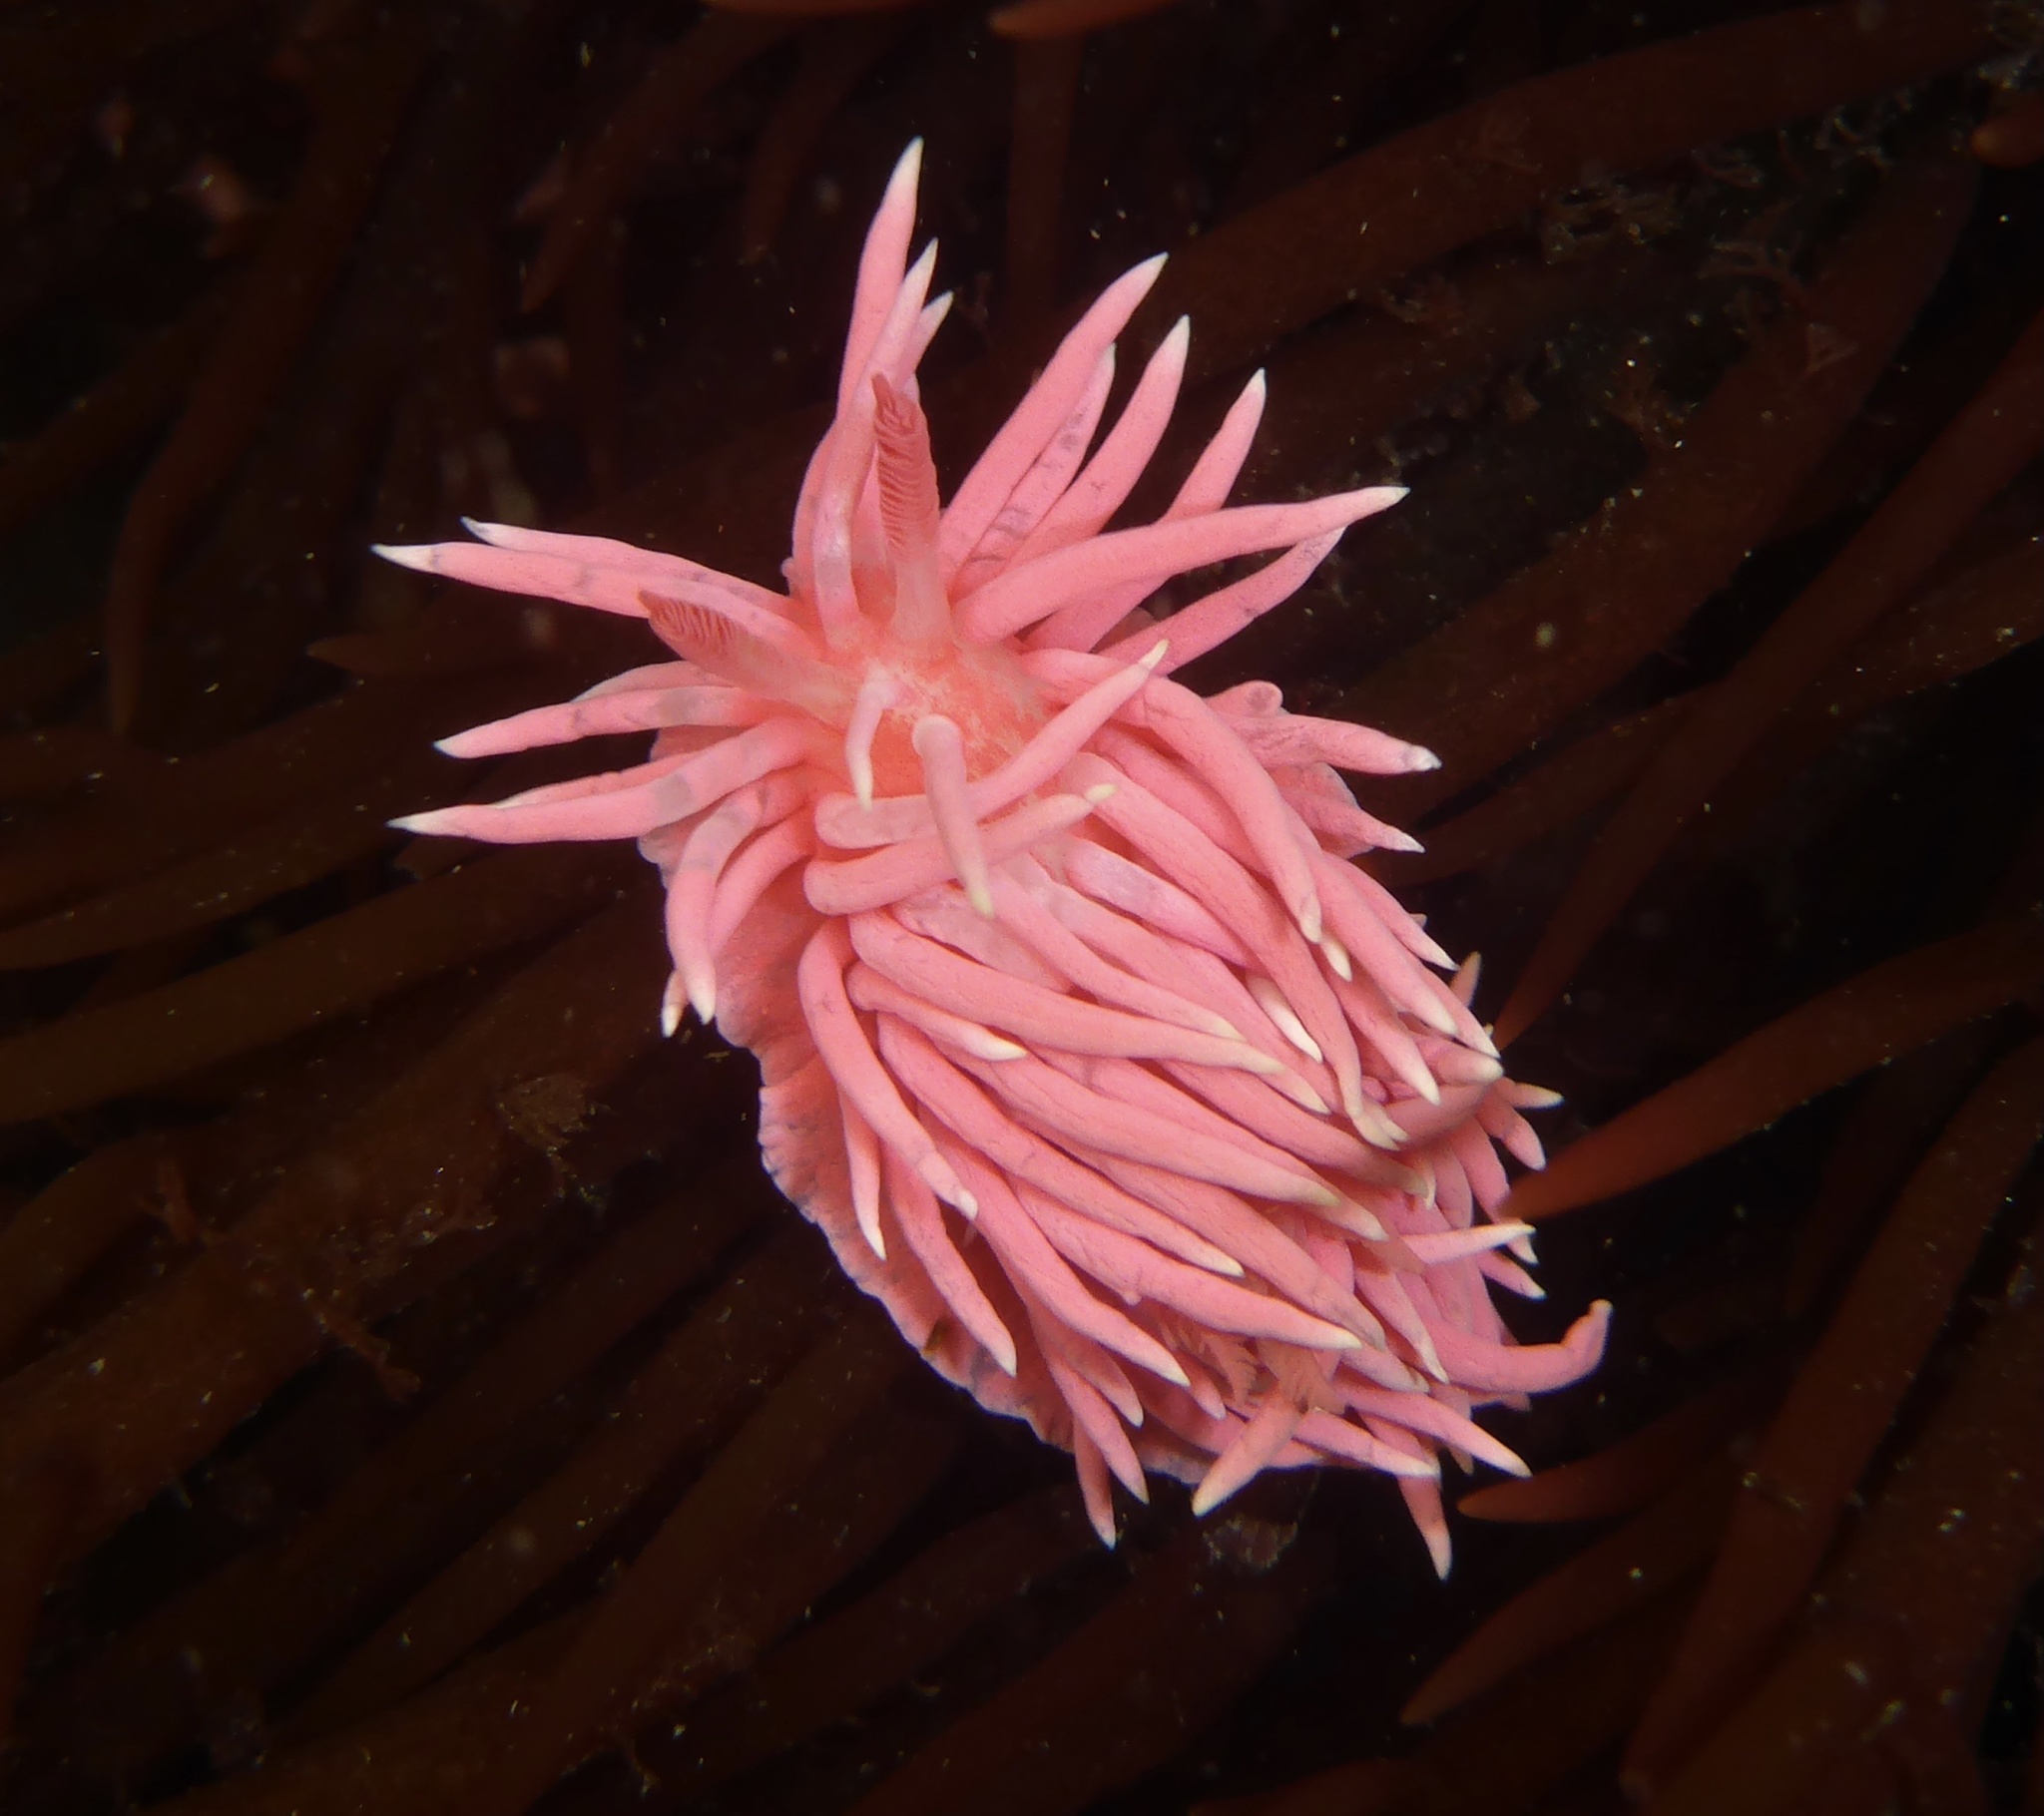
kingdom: Animalia
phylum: Mollusca
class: Gastropoda
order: Nudibranchia
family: Goniodorididae
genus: Okenia
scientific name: Okenia
